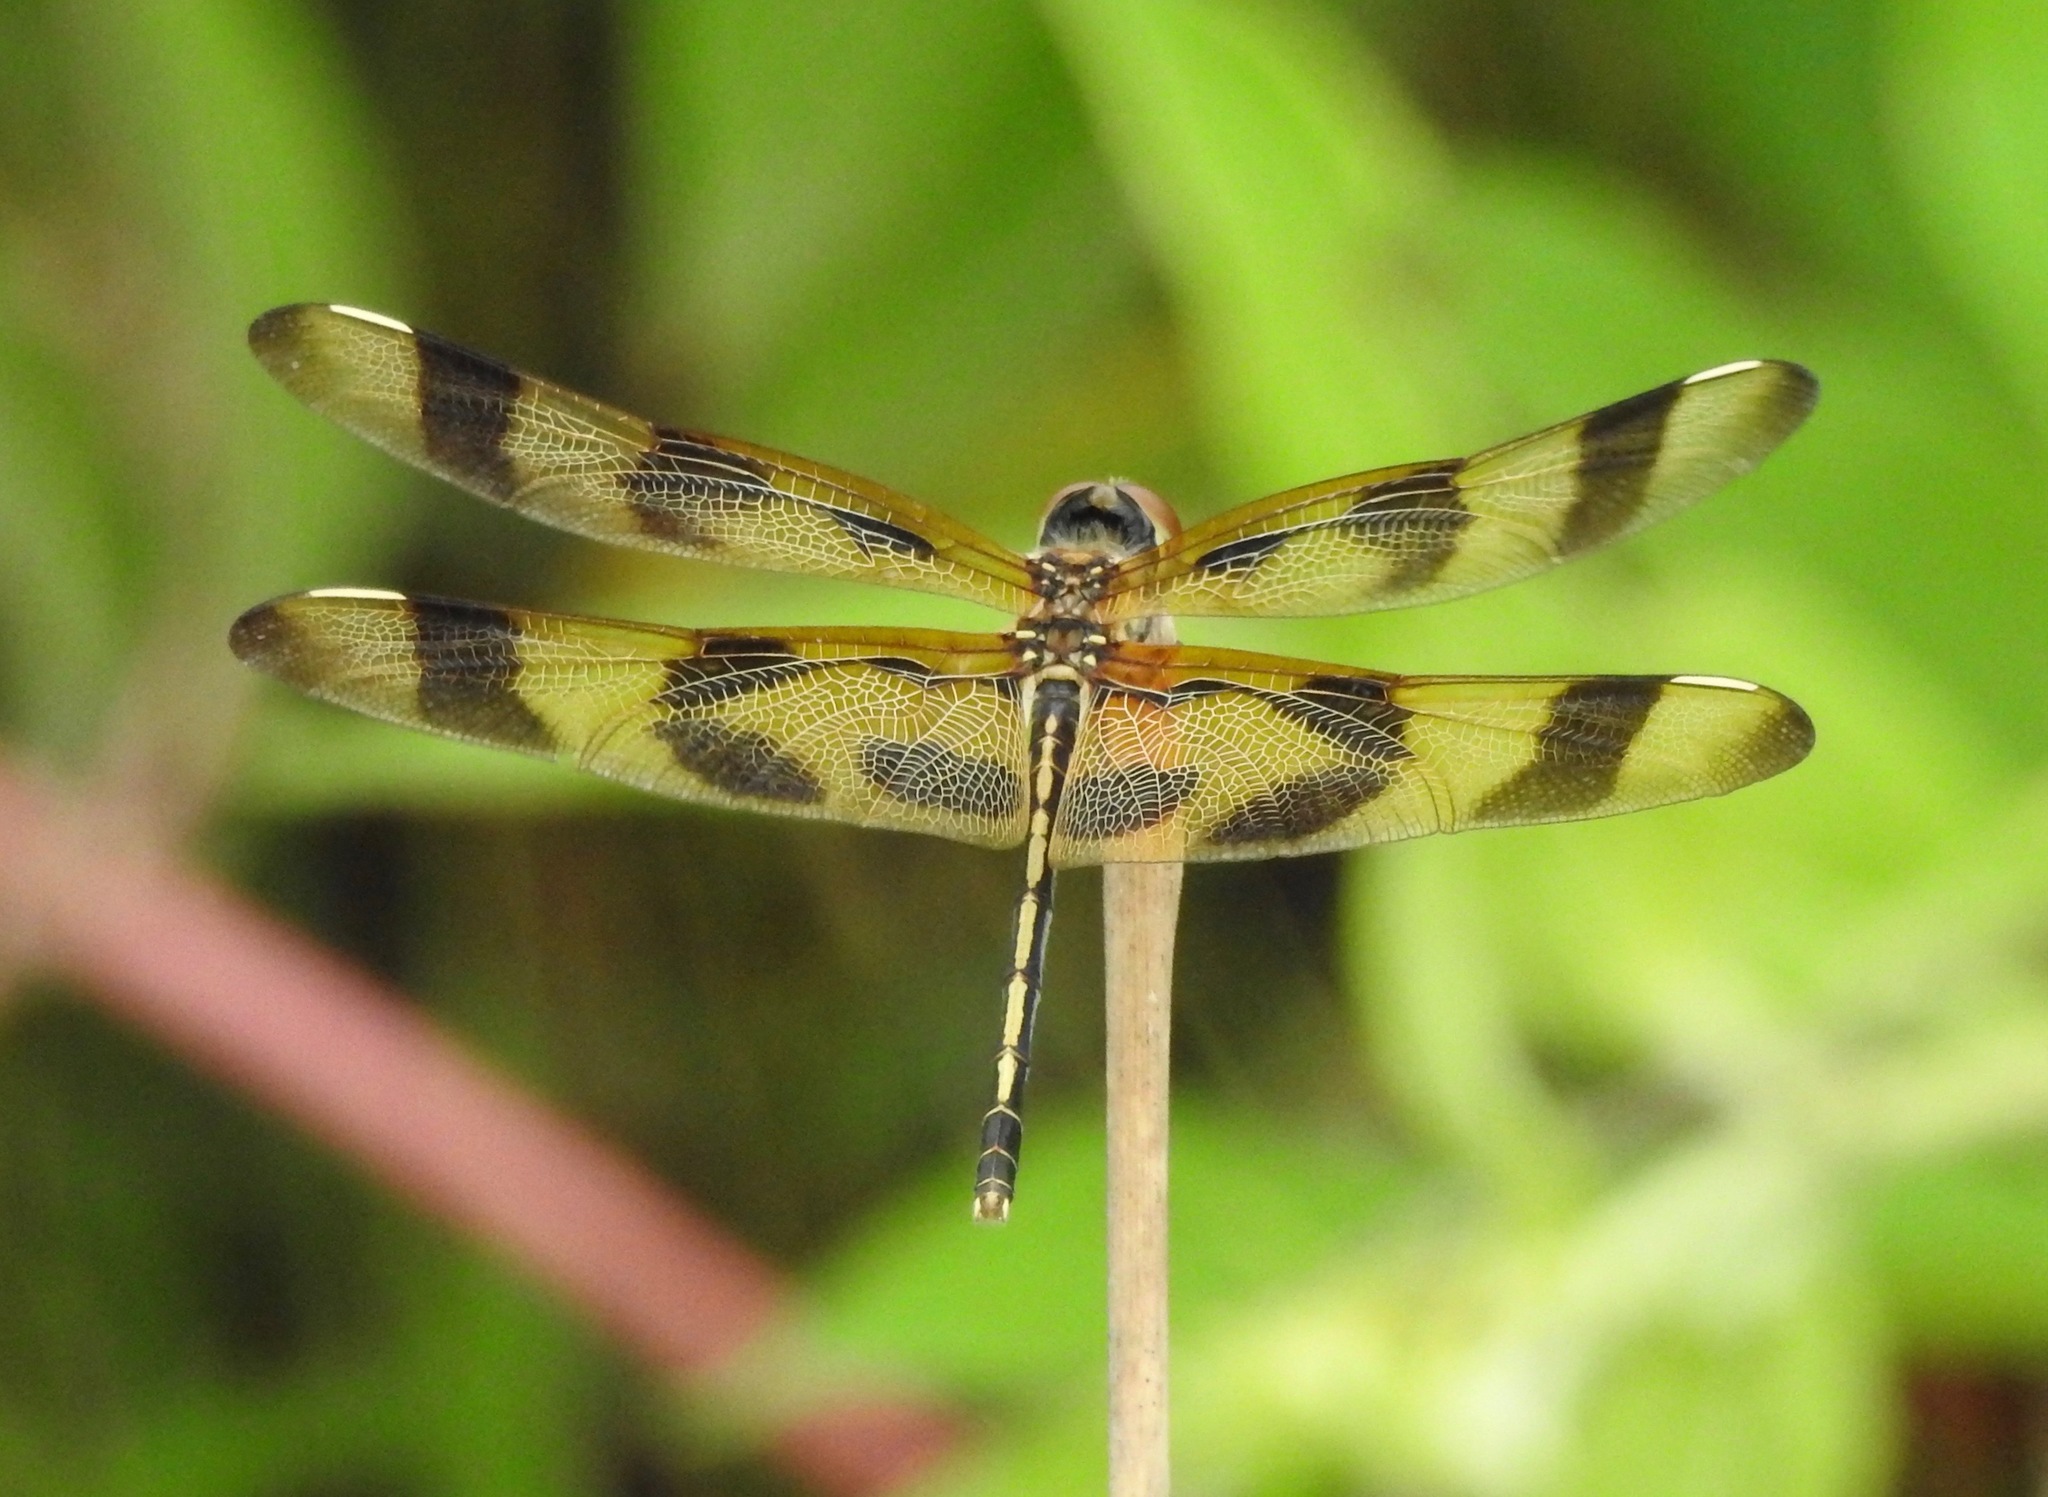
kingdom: Animalia
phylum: Arthropoda
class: Insecta
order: Odonata
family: Libellulidae
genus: Celithemis
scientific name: Celithemis eponina
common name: Halloween pennant
